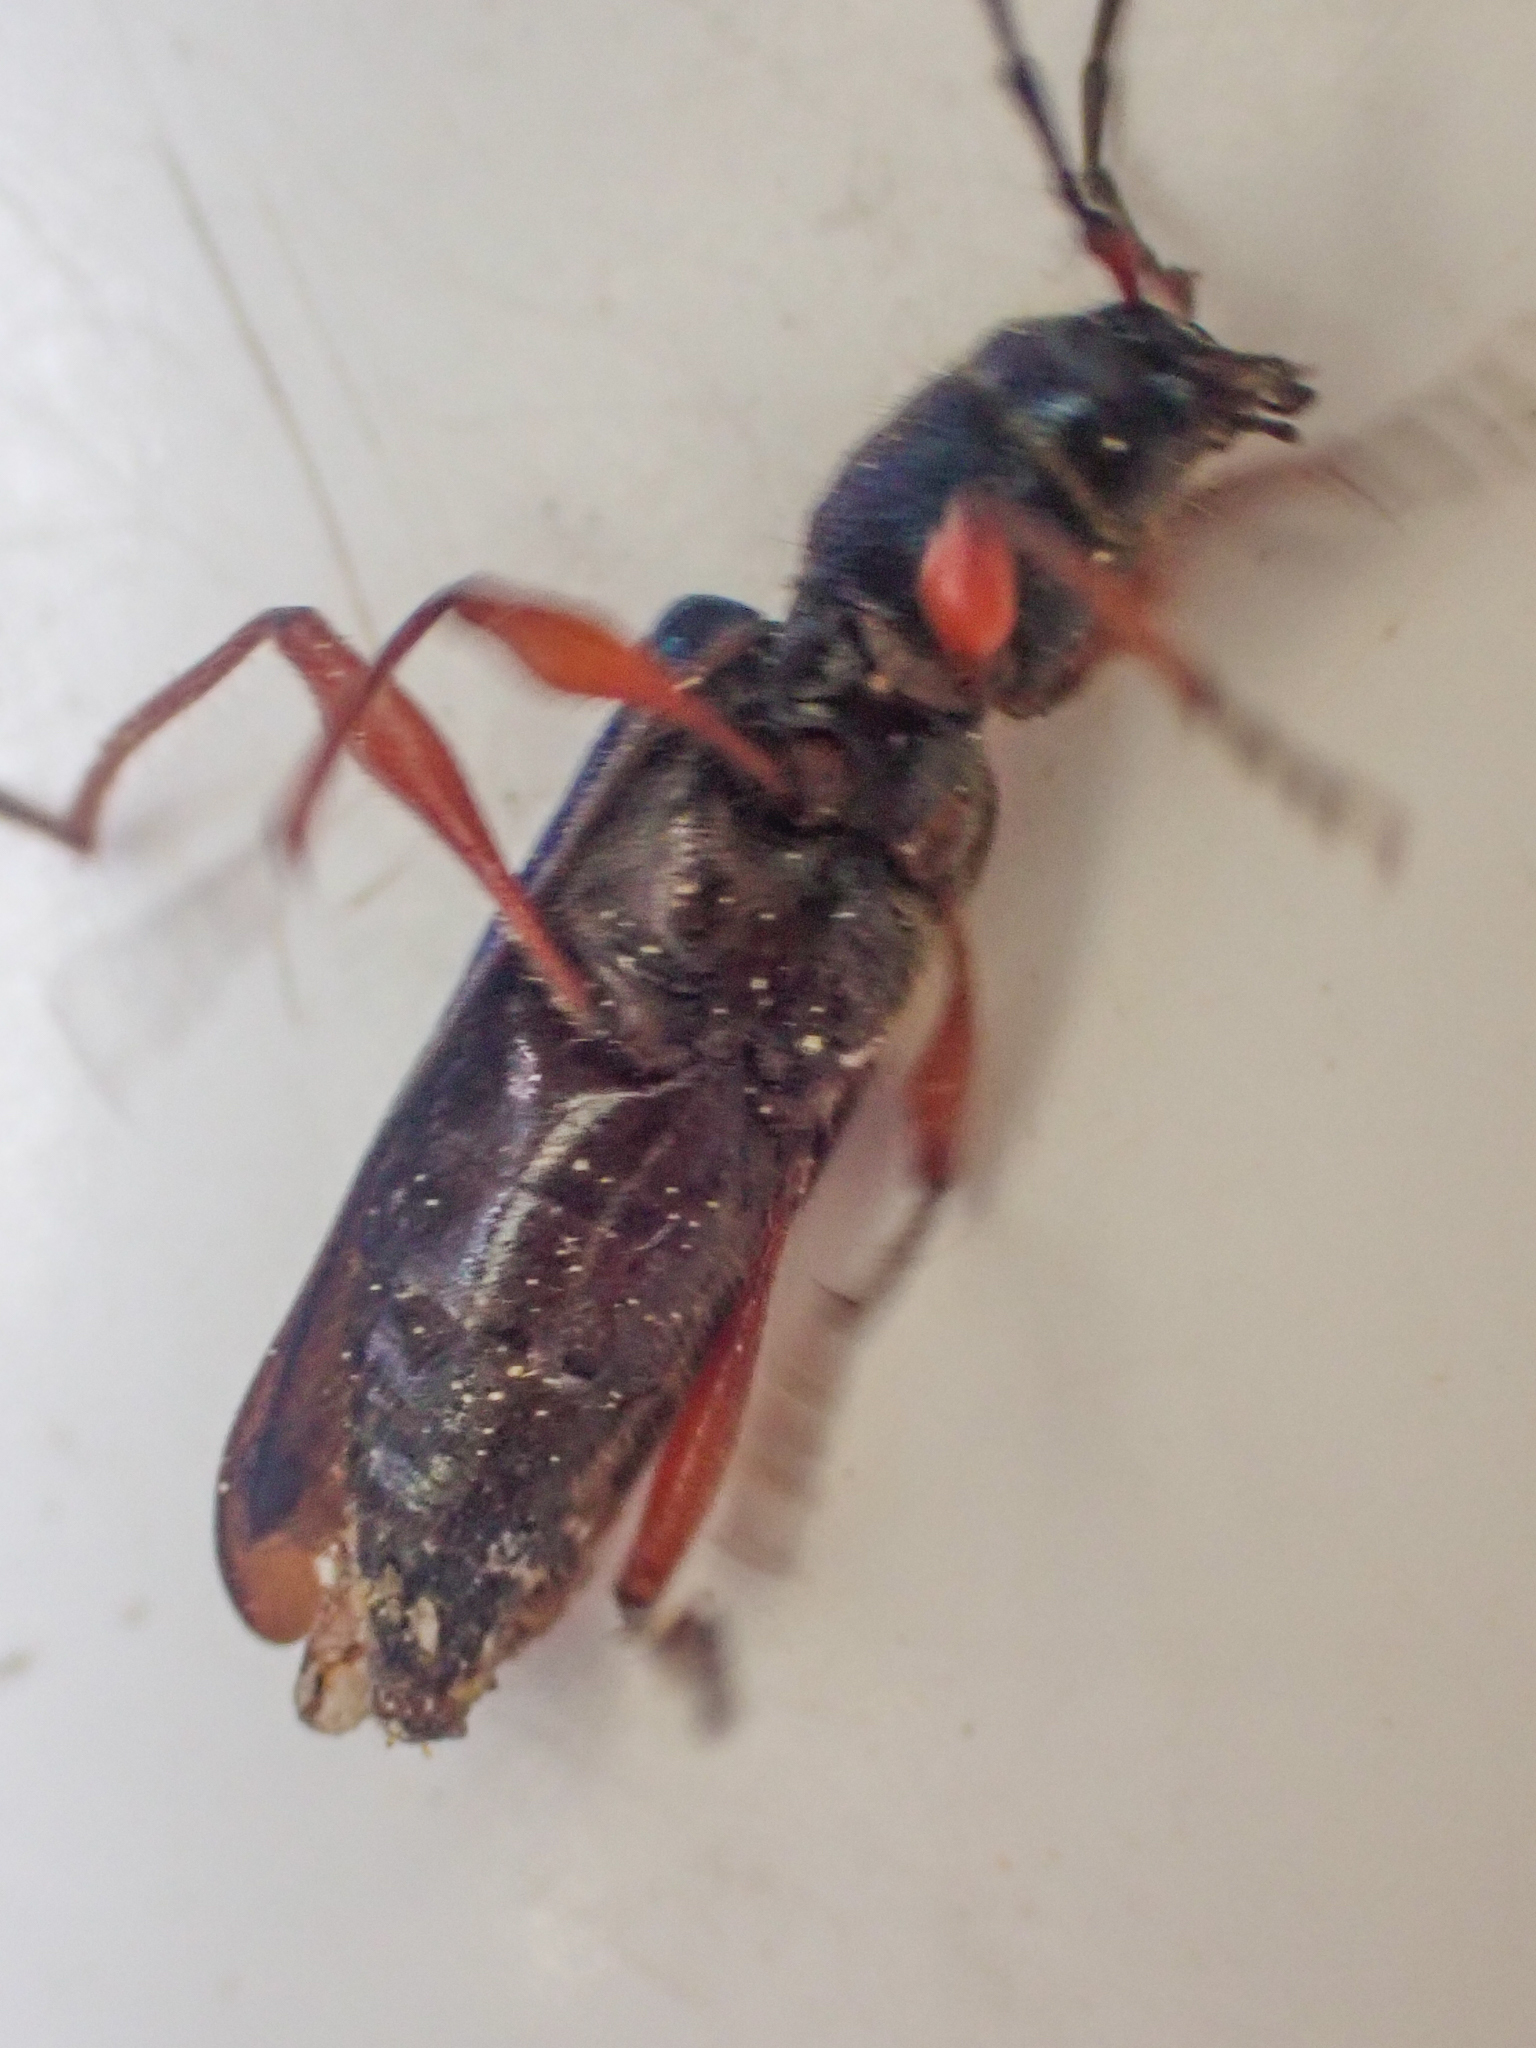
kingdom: Animalia
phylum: Arthropoda
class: Insecta
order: Coleoptera
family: Cerambycidae
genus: Meriellum
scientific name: Meriellum proteus
